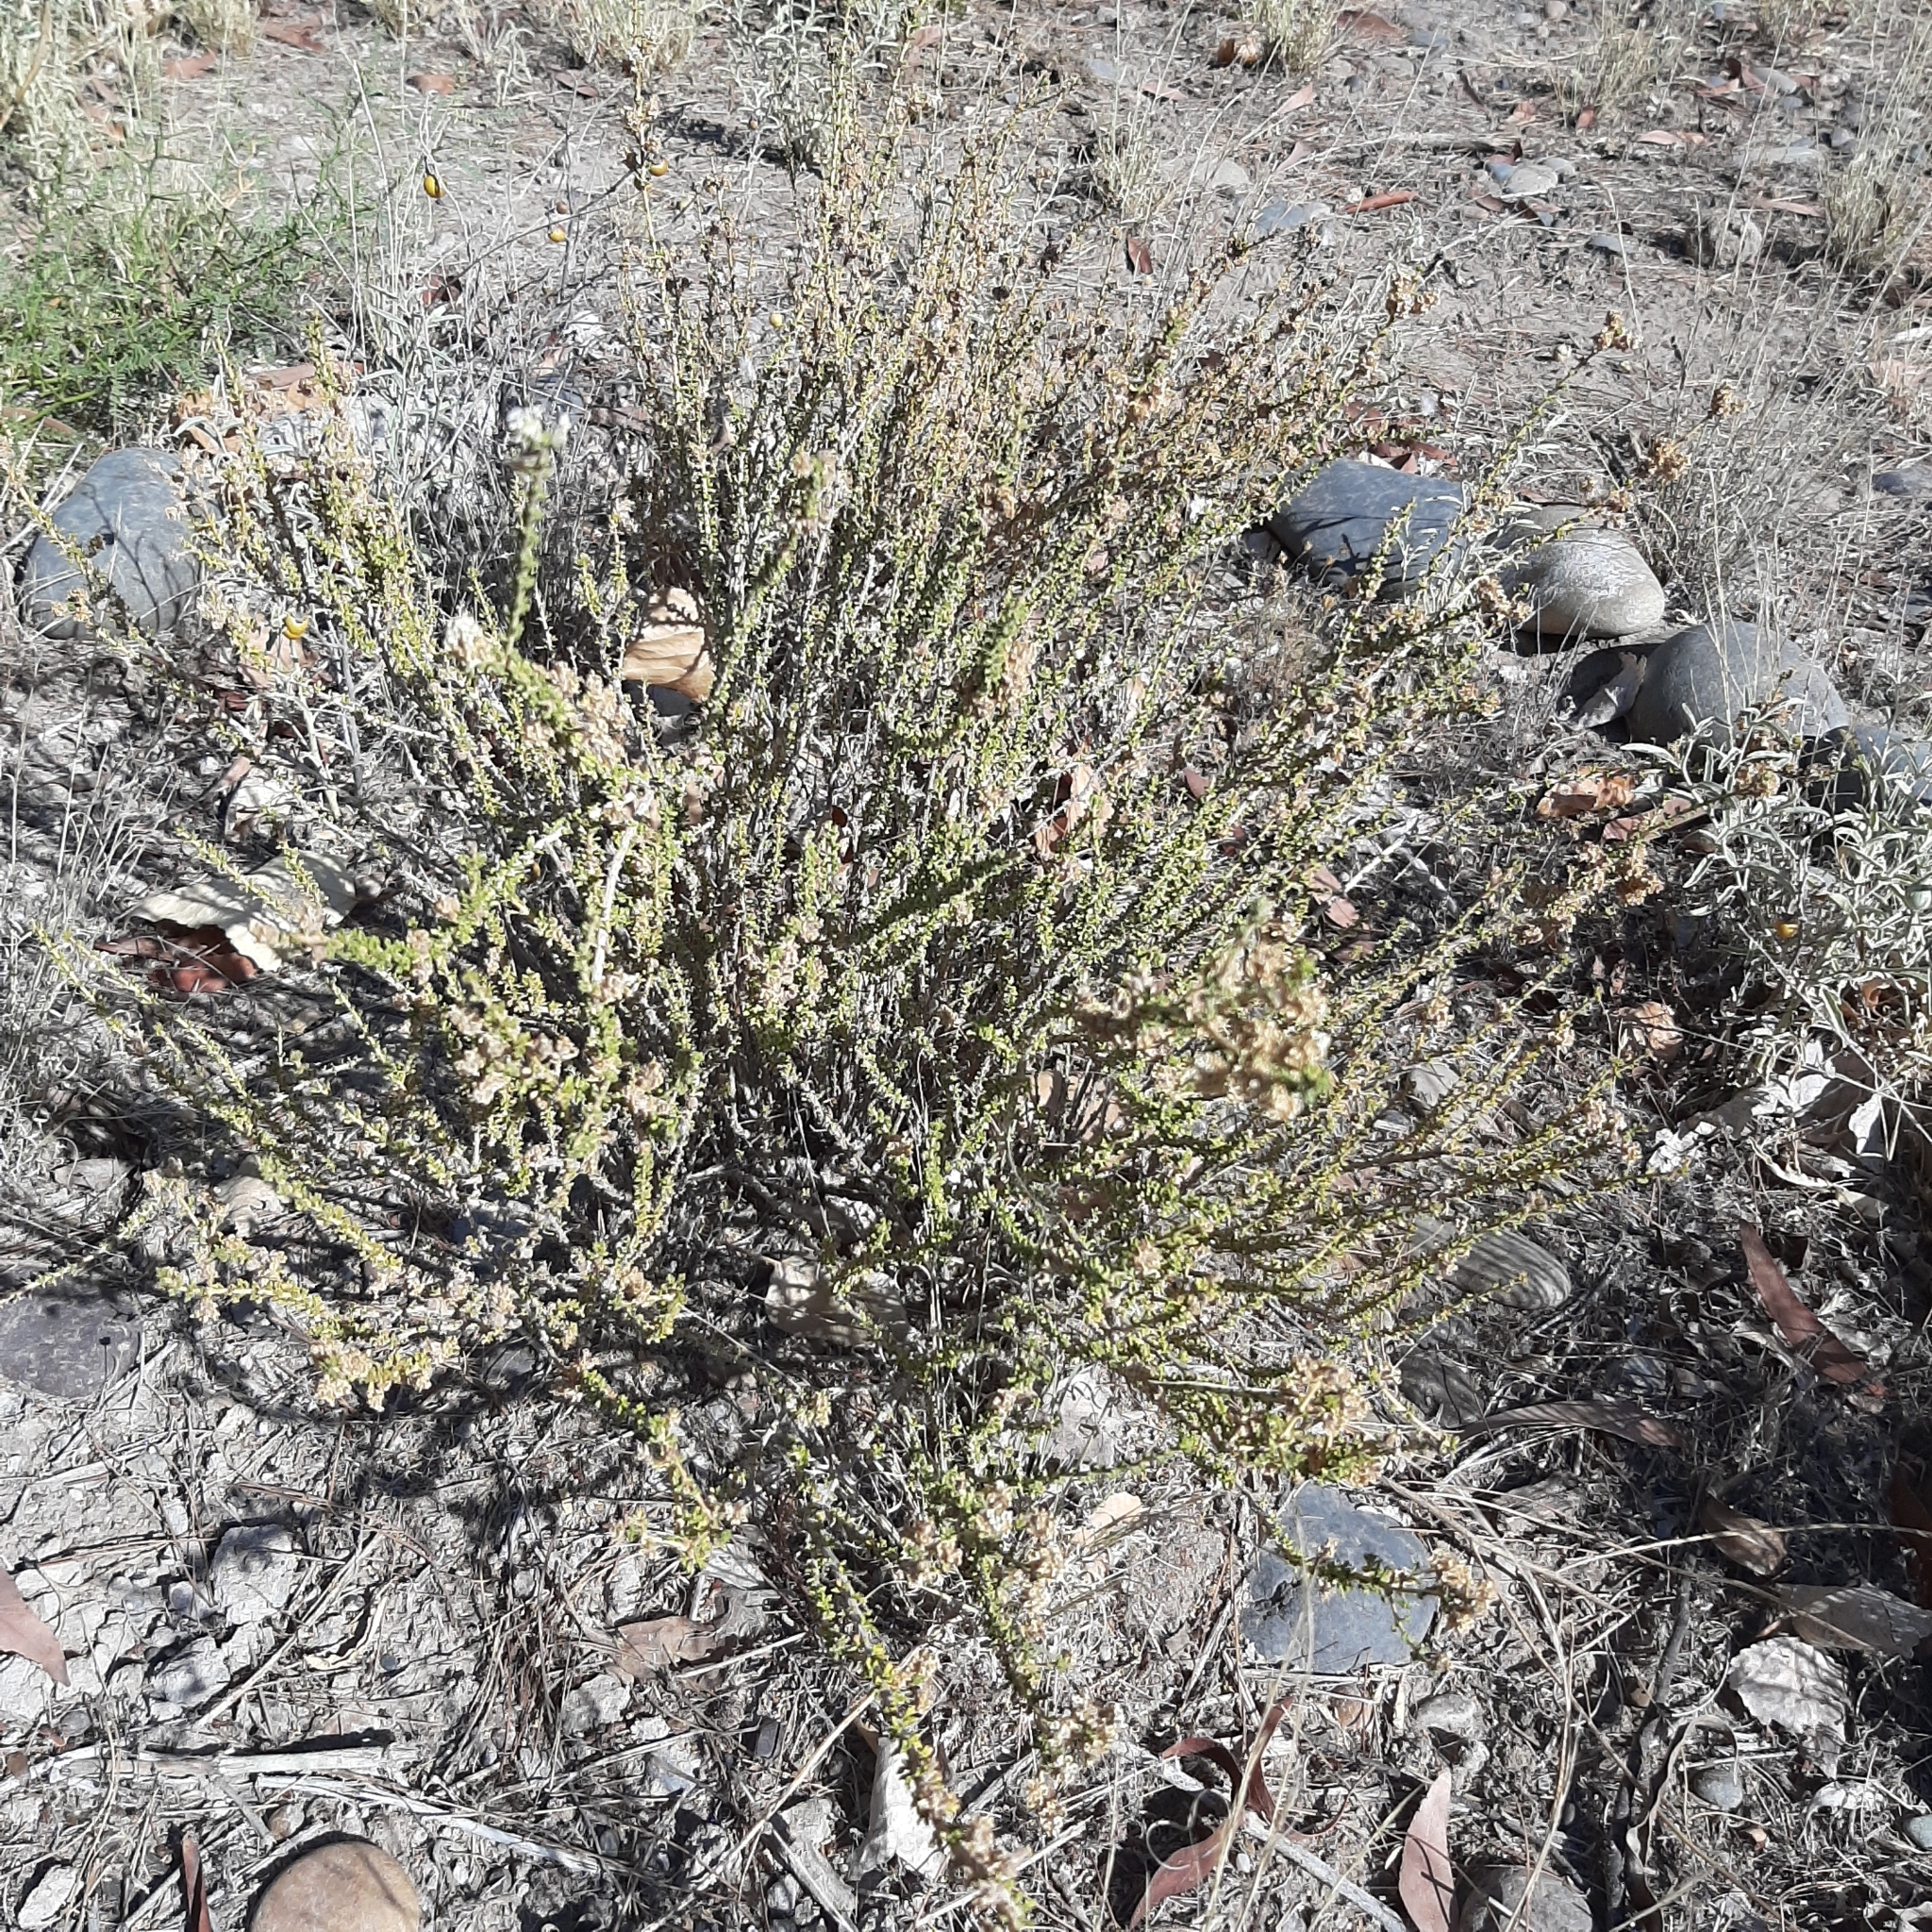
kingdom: Plantae
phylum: Tracheophyta
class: Magnoliopsida
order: Lamiales
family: Verbenaceae
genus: Acantholippia
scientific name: Acantholippia seriphioides
